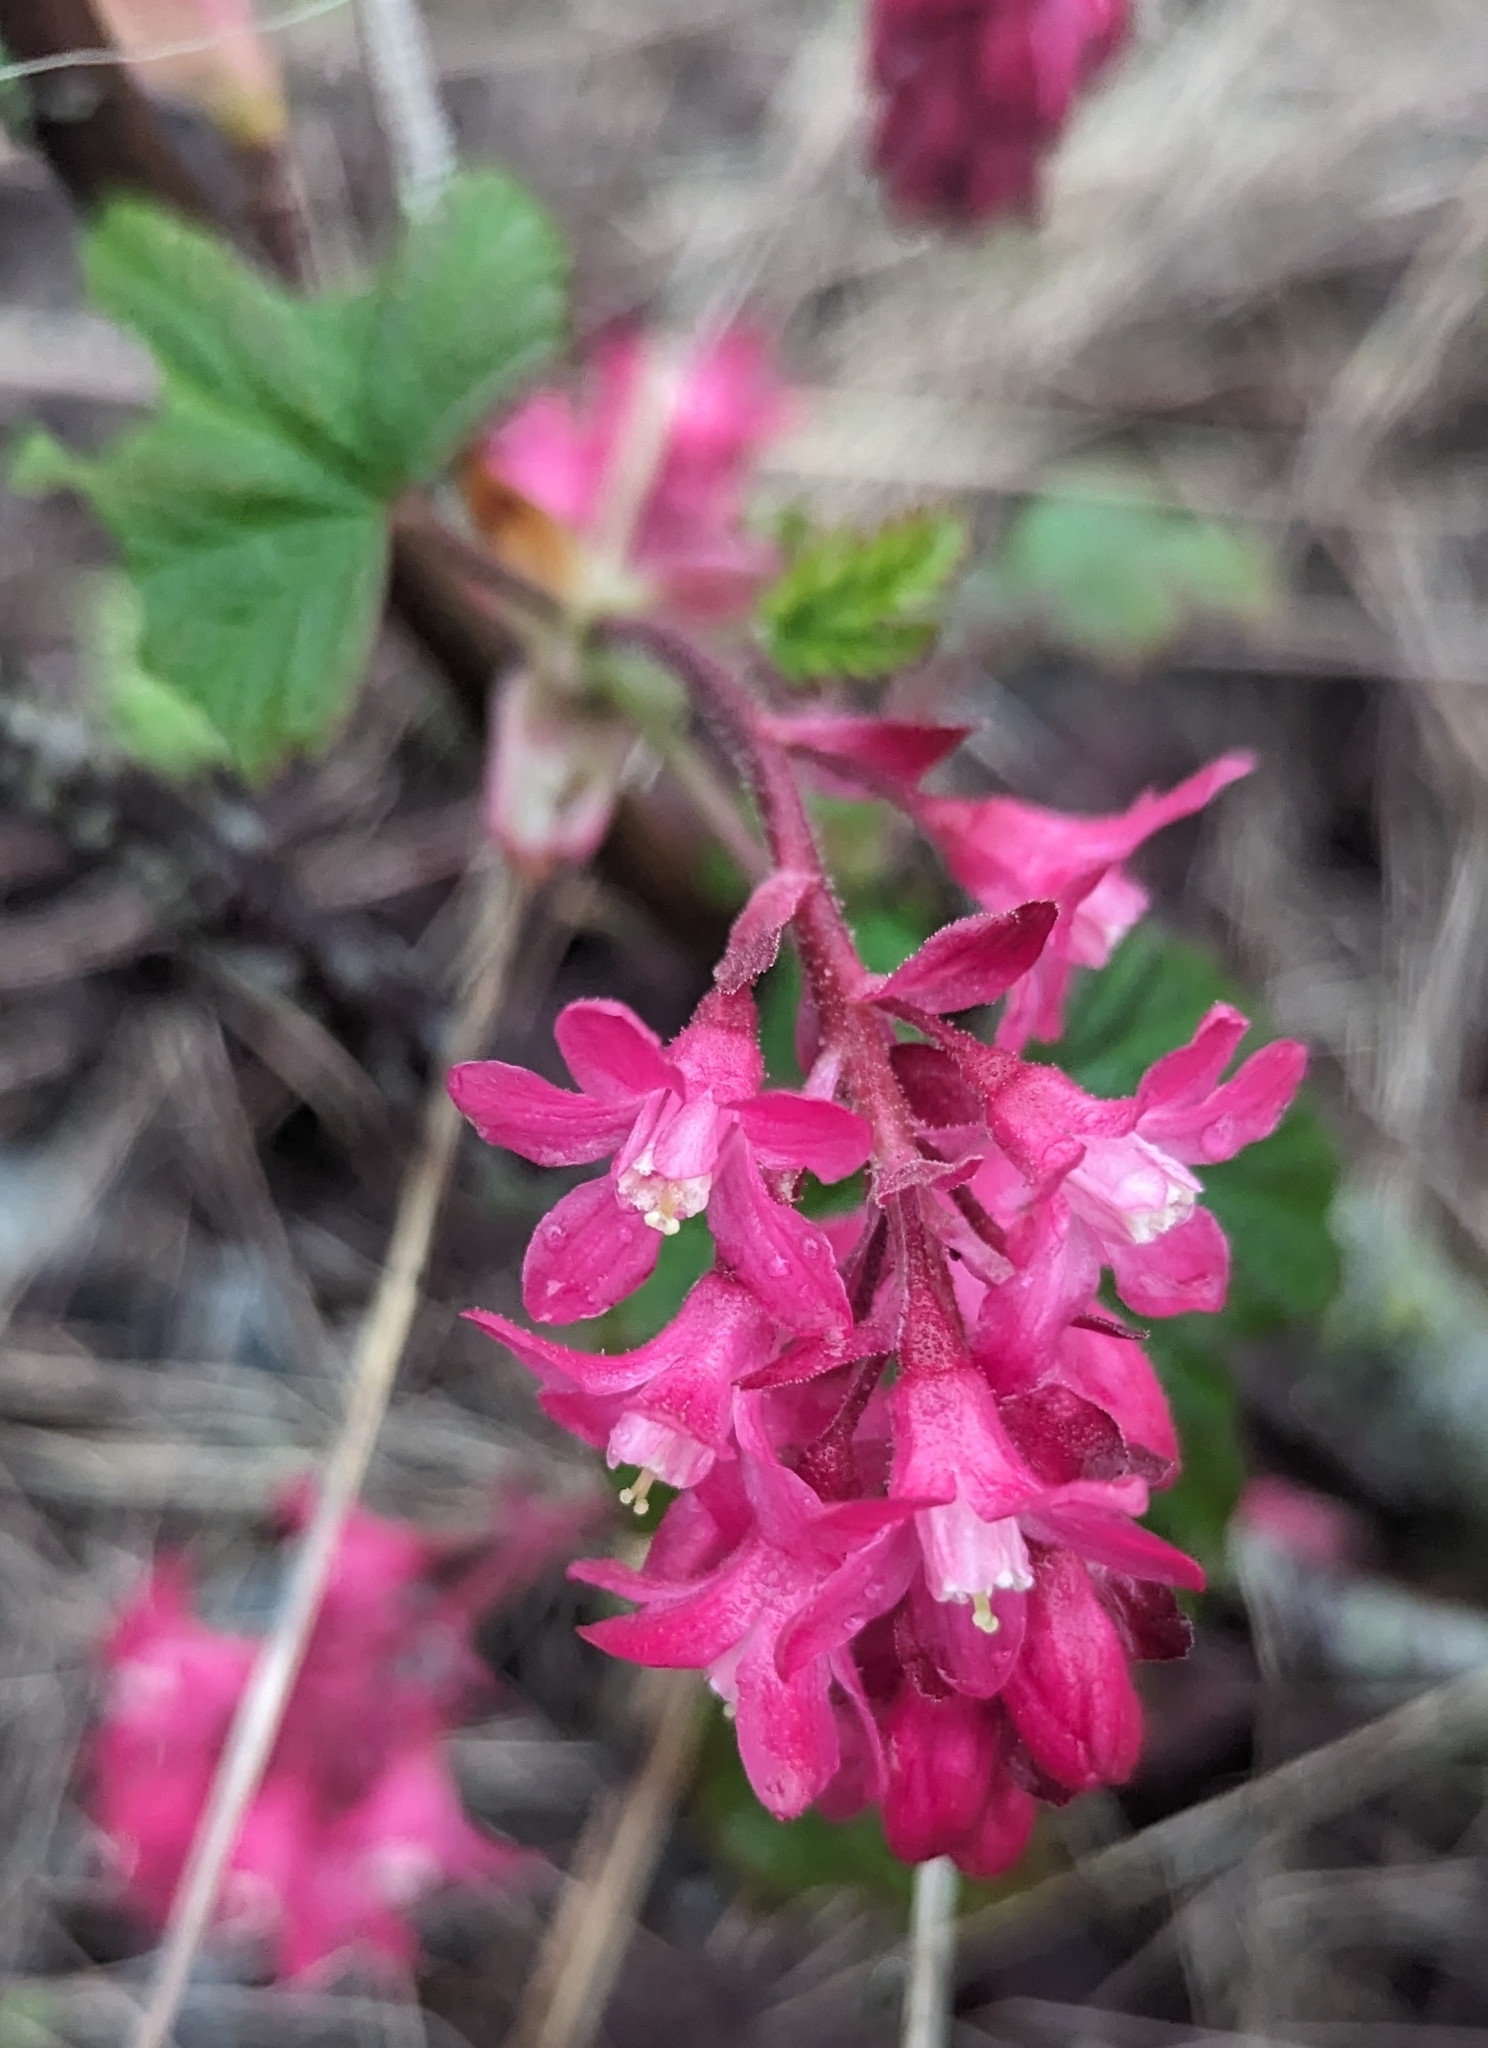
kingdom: Plantae
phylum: Tracheophyta
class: Magnoliopsida
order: Saxifragales
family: Grossulariaceae
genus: Ribes
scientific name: Ribes sanguineum
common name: Flowering currant
